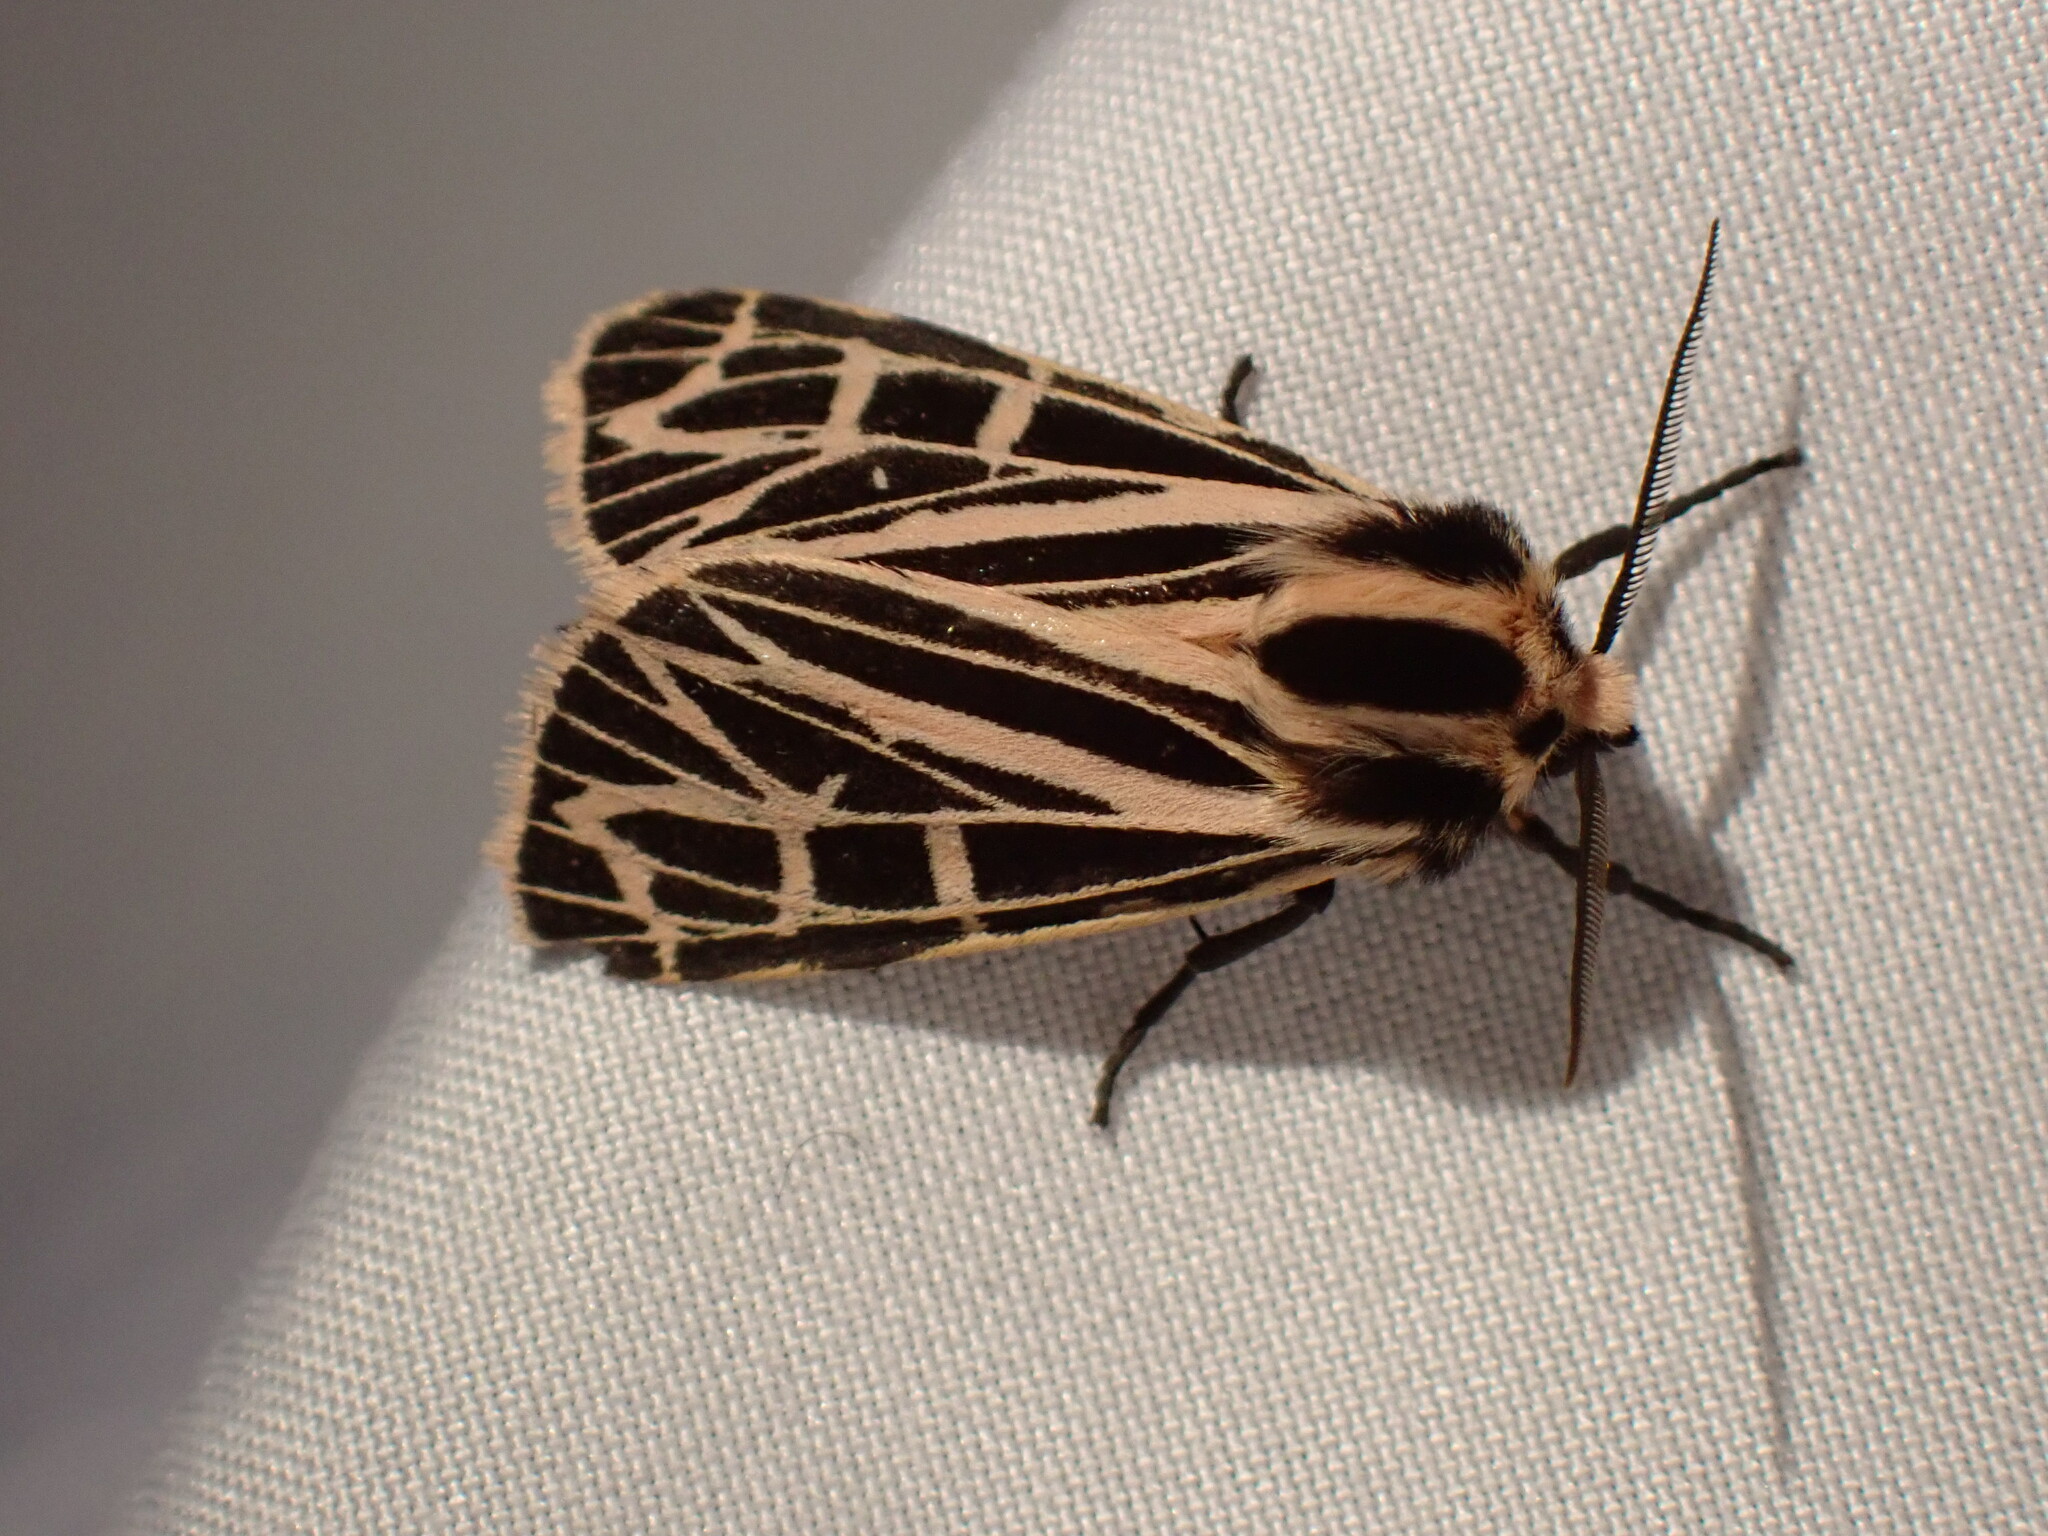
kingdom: Animalia
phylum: Arthropoda
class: Insecta
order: Lepidoptera
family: Erebidae
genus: Grammia
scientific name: Grammia parthenice
